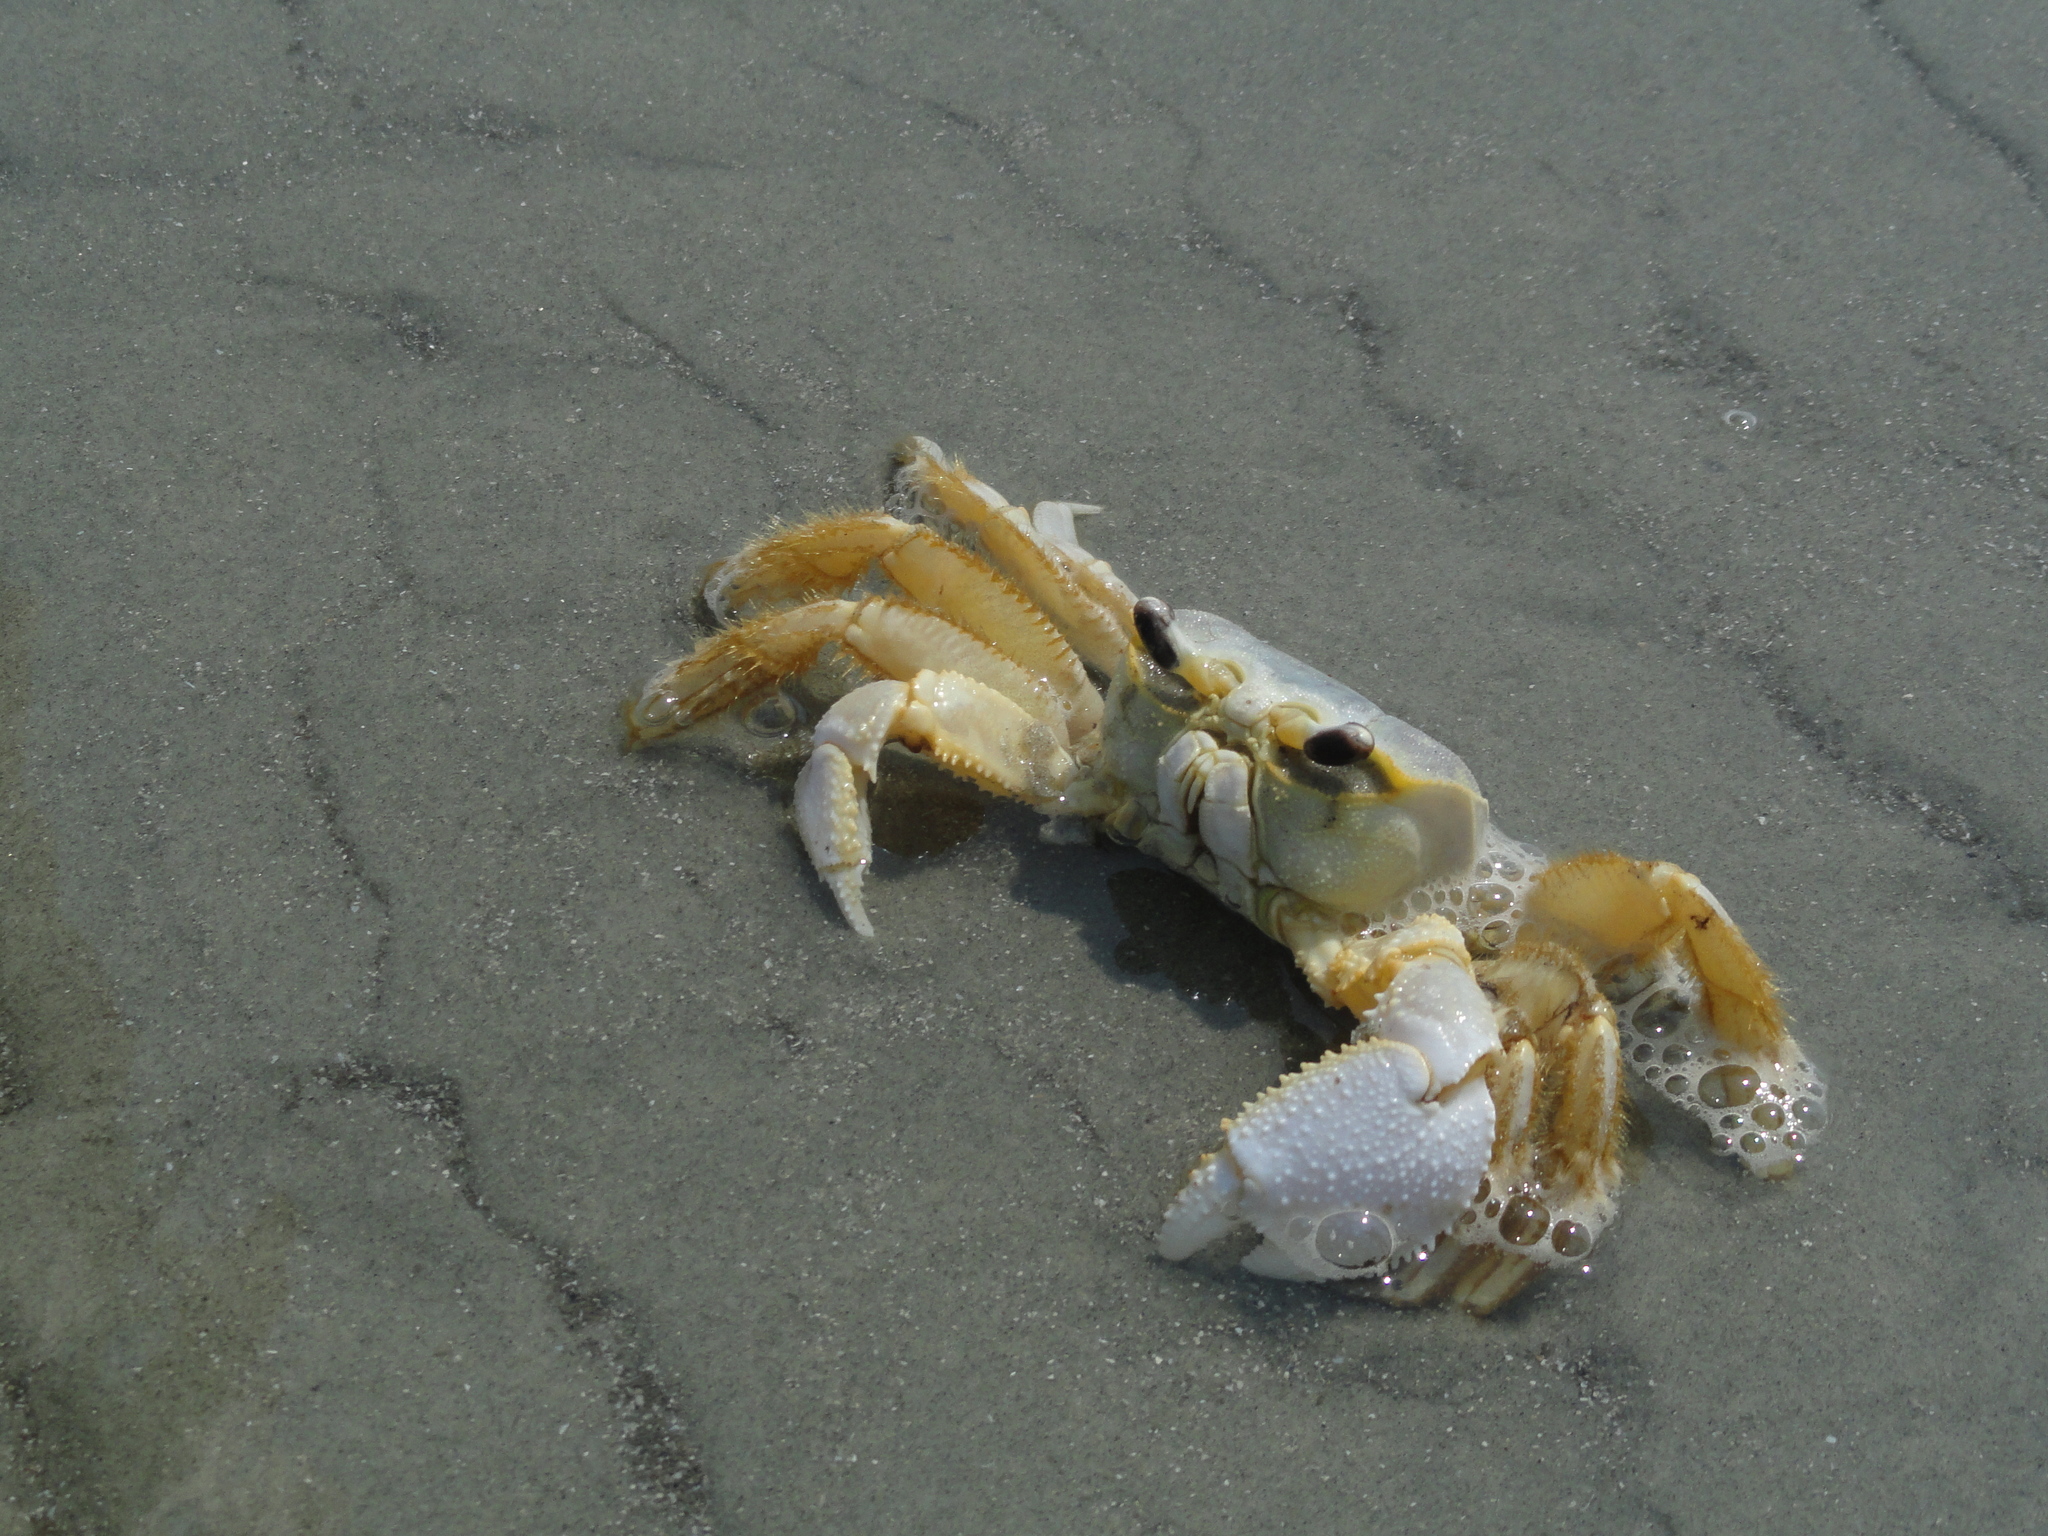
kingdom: Animalia
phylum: Arthropoda
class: Malacostraca
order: Decapoda
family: Ocypodidae
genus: Ocypode
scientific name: Ocypode quadrata
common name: Ghost crab
